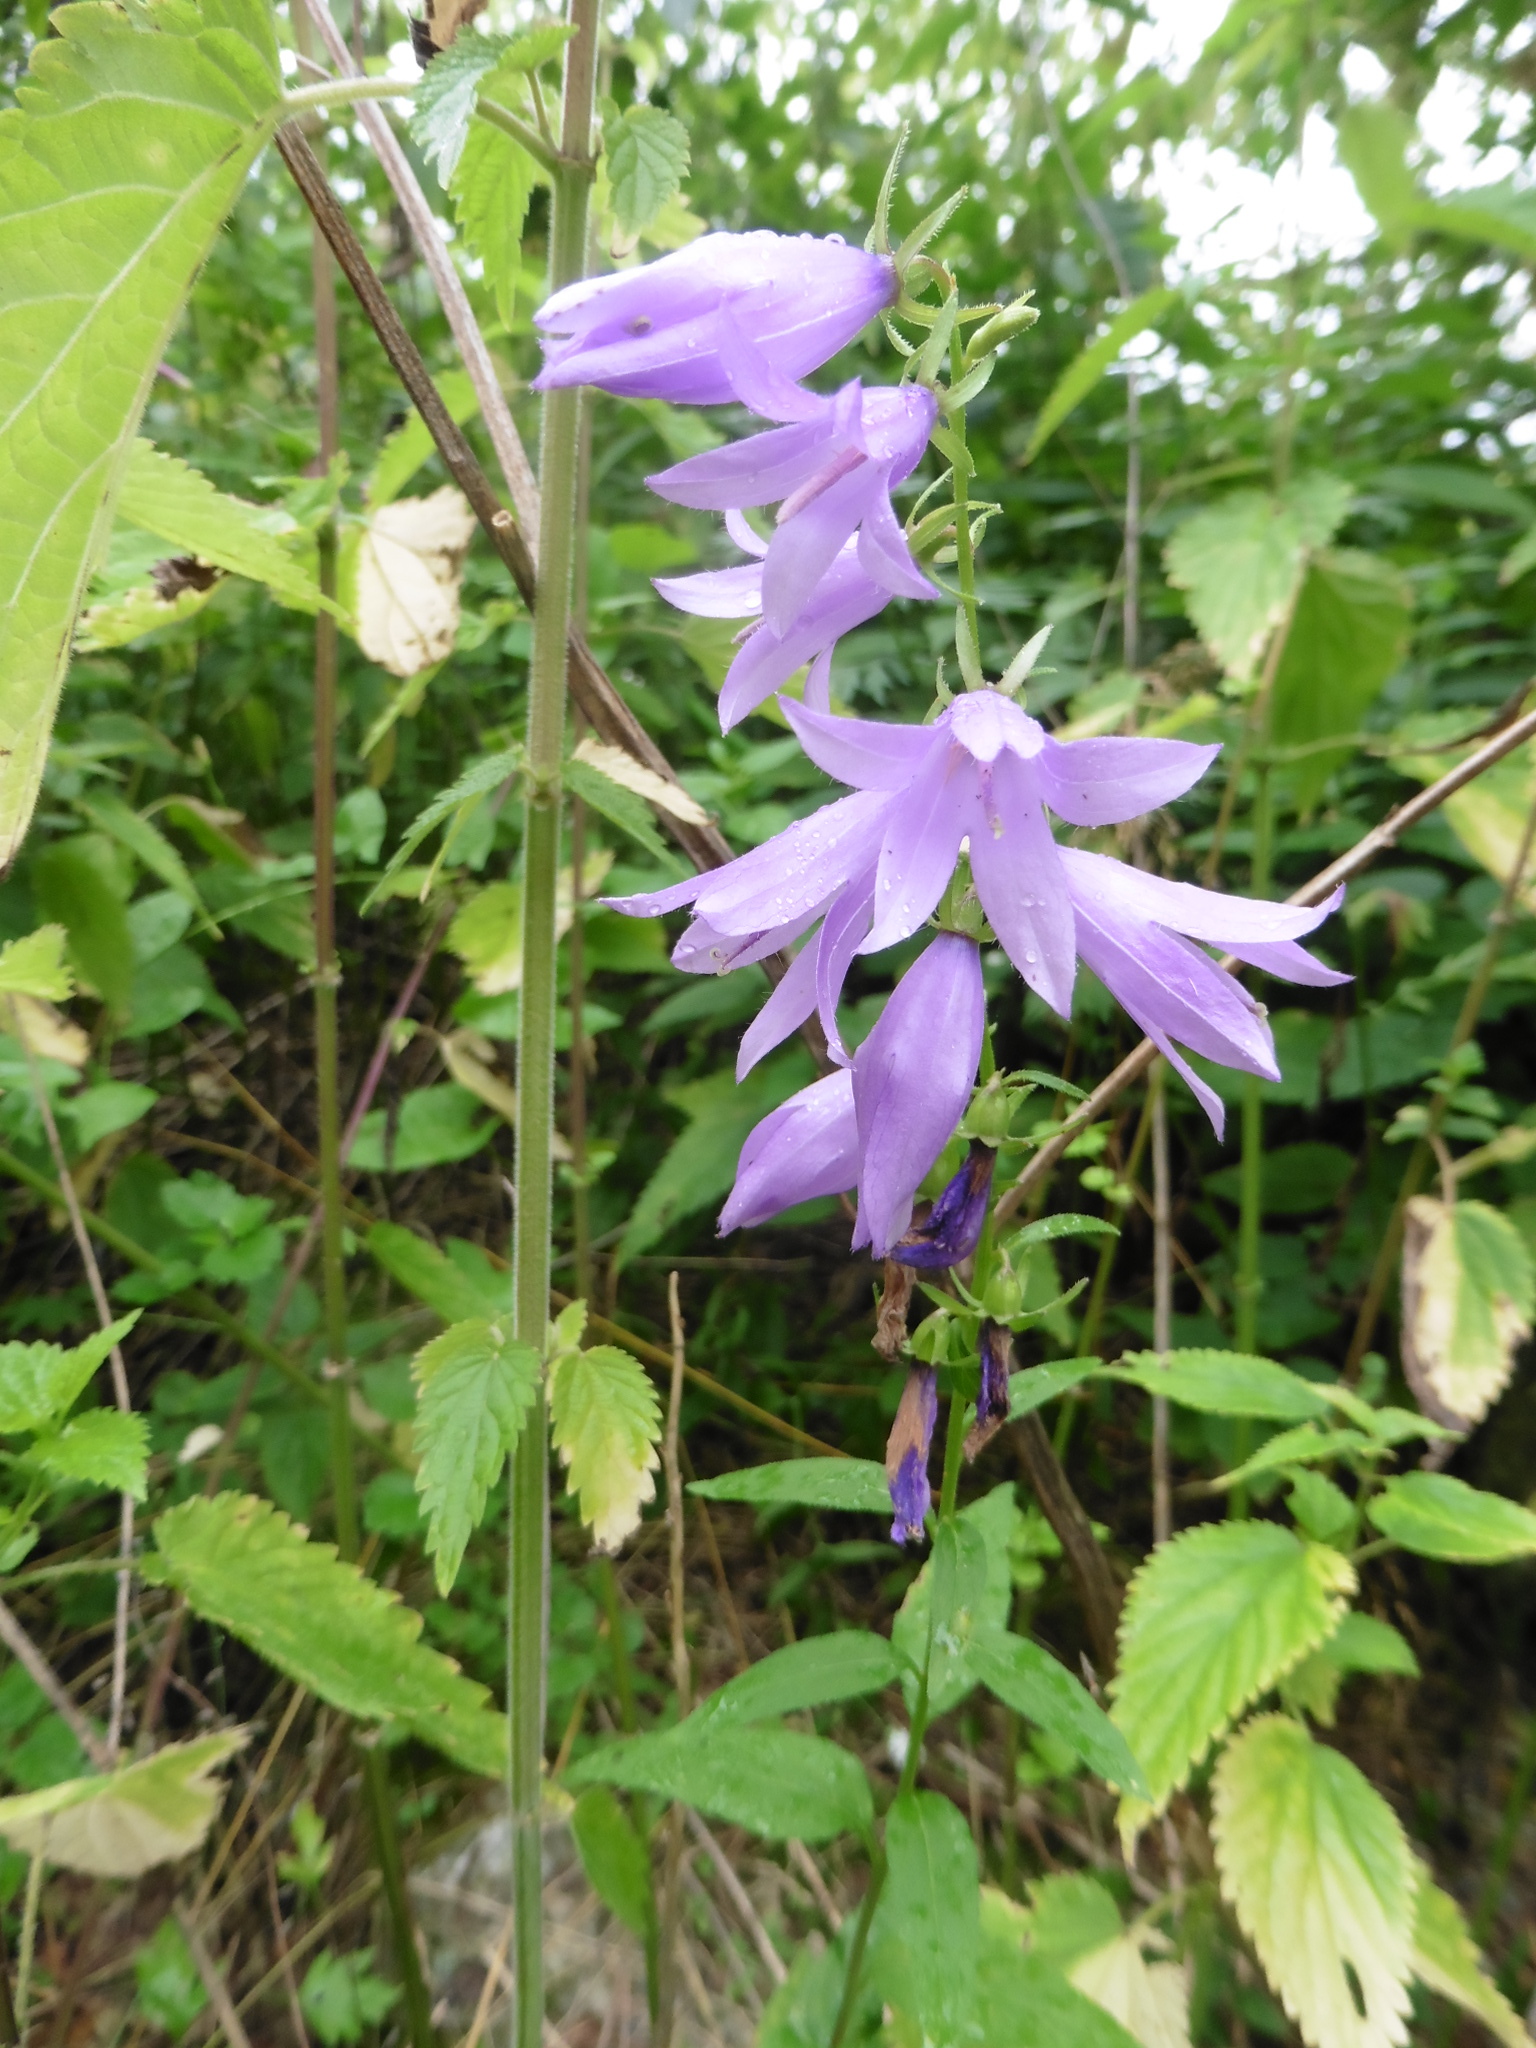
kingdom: Plantae
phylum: Tracheophyta
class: Magnoliopsida
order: Asterales
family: Campanulaceae
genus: Campanula
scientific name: Campanula rapunculoides
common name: Creeping bellflower
